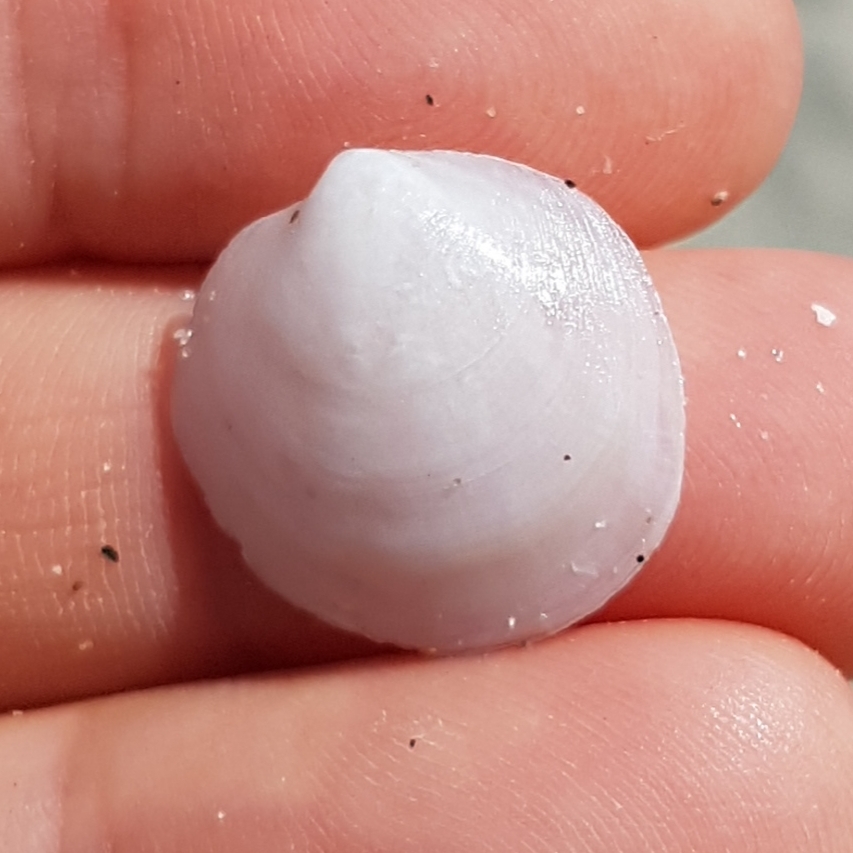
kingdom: Animalia
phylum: Mollusca
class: Bivalvia
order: Lucinida
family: Lucinidae
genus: Loripes
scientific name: Loripes orbiculatus
